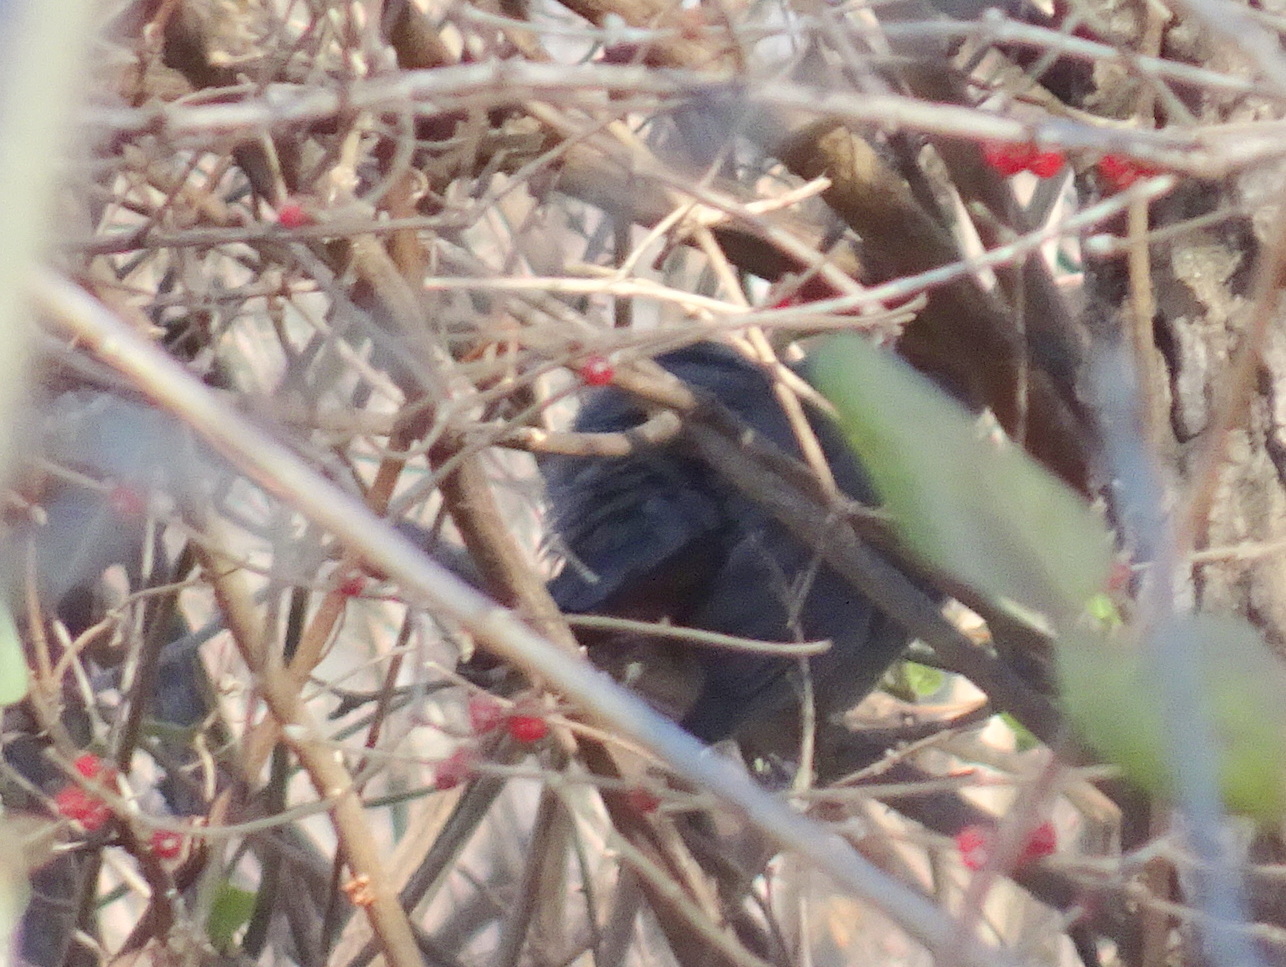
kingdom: Animalia
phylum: Chordata
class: Aves
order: Passeriformes
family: Mimidae
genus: Dumetella
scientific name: Dumetella carolinensis
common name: Gray catbird
